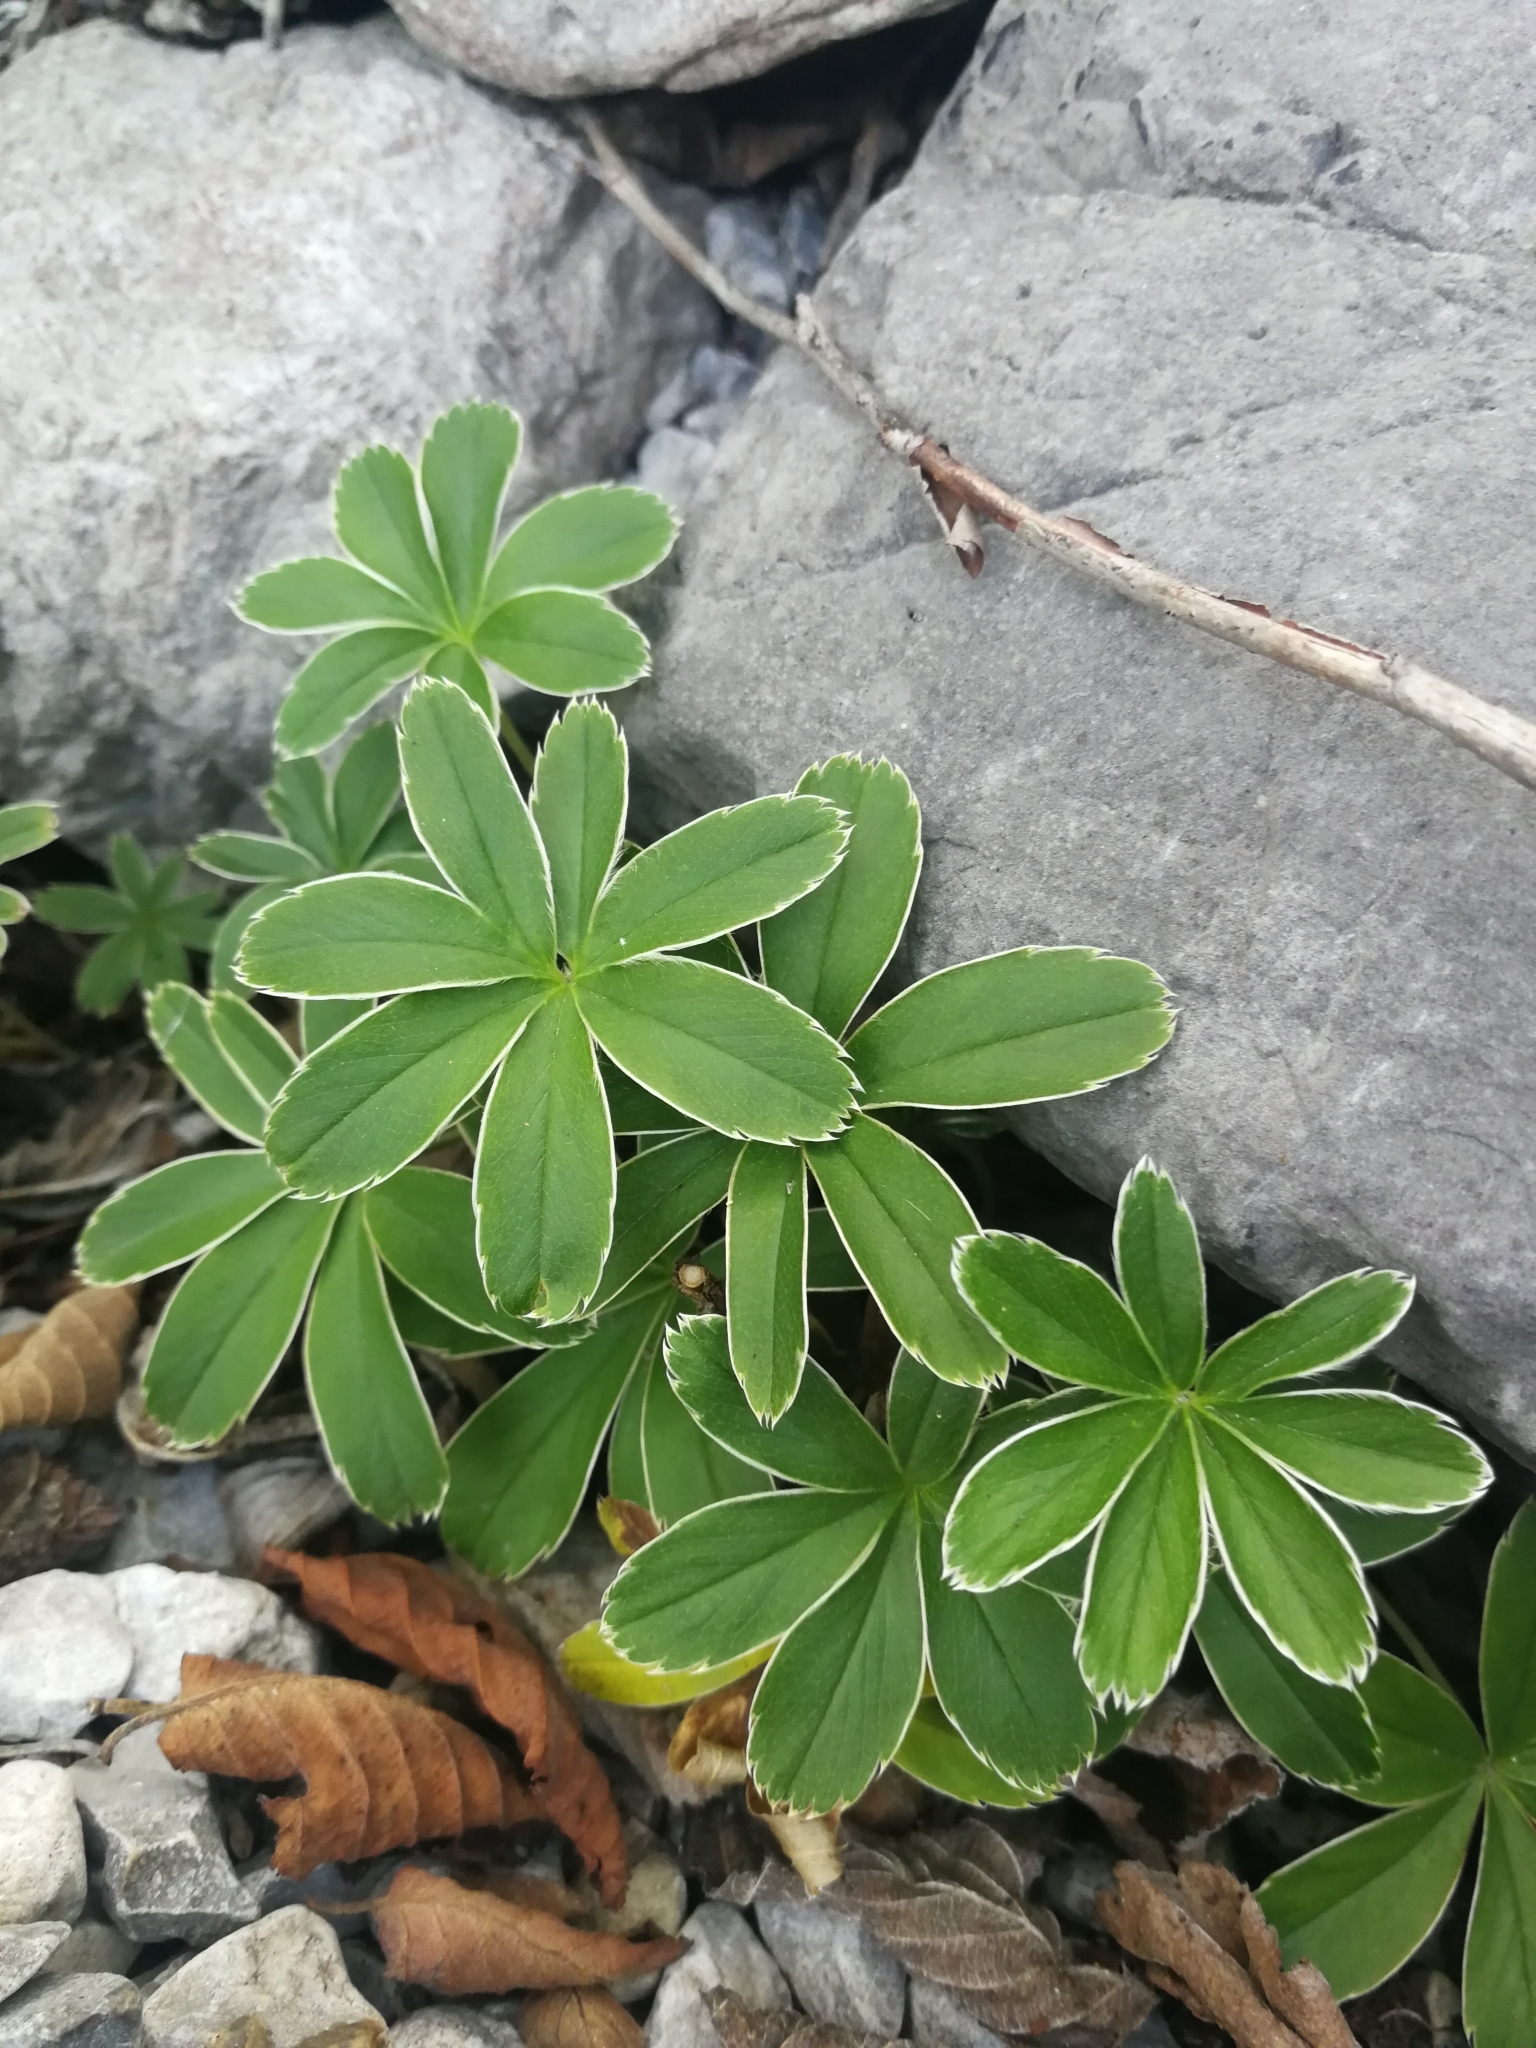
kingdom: Plantae
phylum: Tracheophyta
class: Magnoliopsida
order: Rosales
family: Rosaceae
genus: Alchemilla
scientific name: Alchemilla alpina
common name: Alpine lady's-mantle
